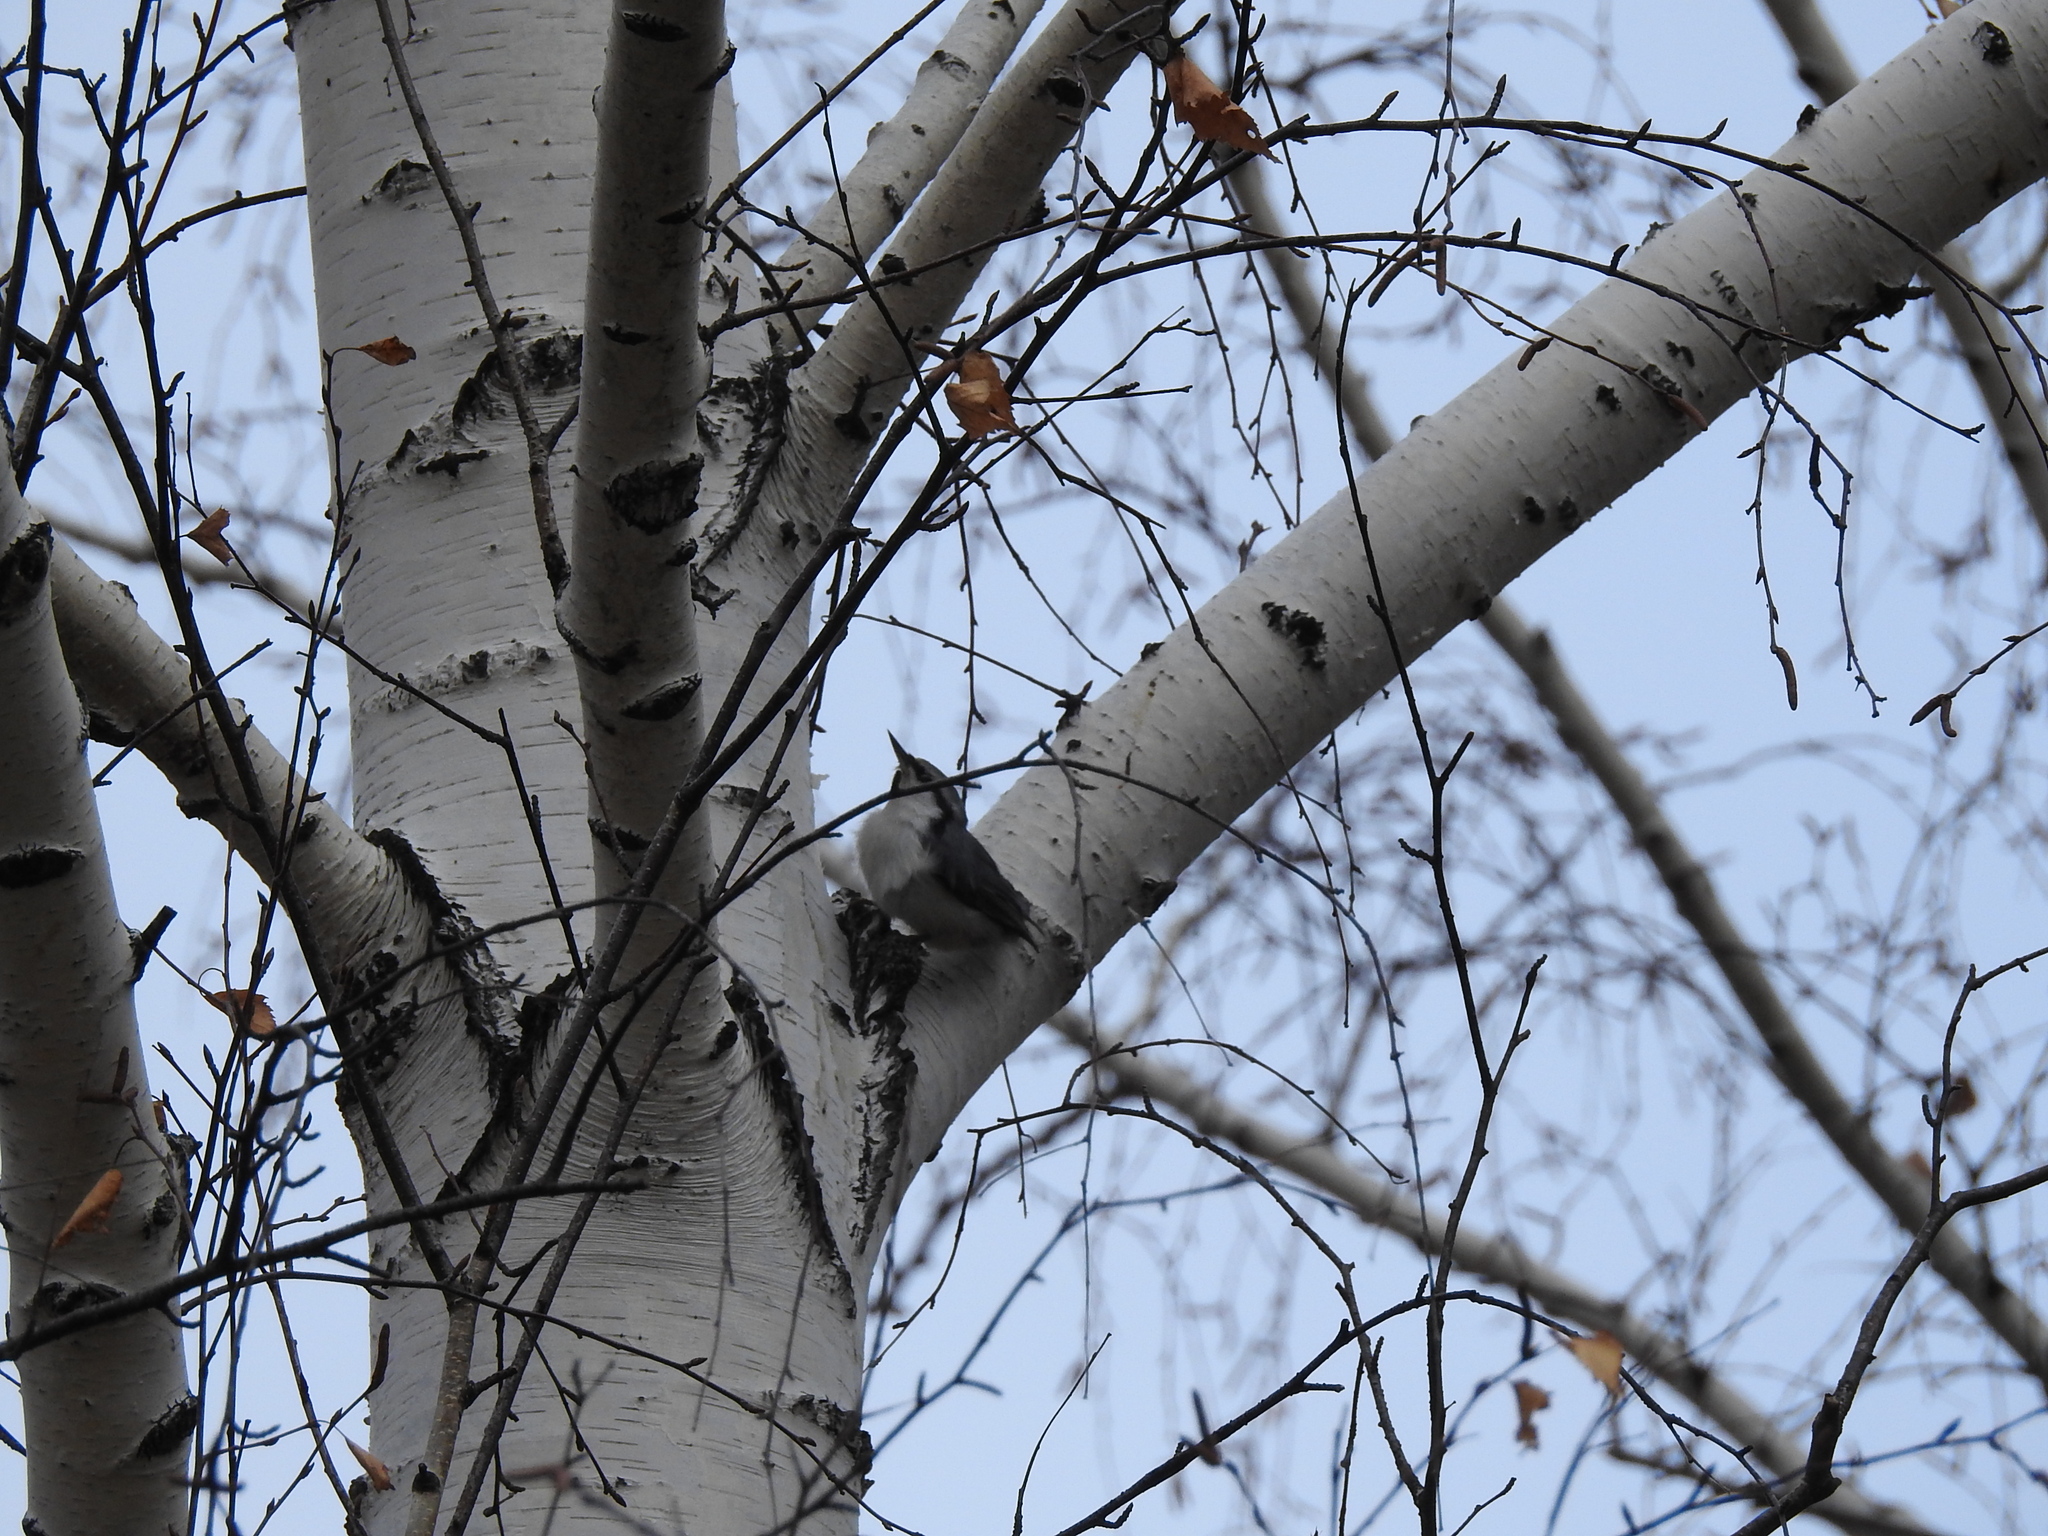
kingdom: Animalia
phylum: Chordata
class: Aves
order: Passeriformes
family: Sittidae
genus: Sitta
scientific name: Sitta europaea
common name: Eurasian nuthatch
